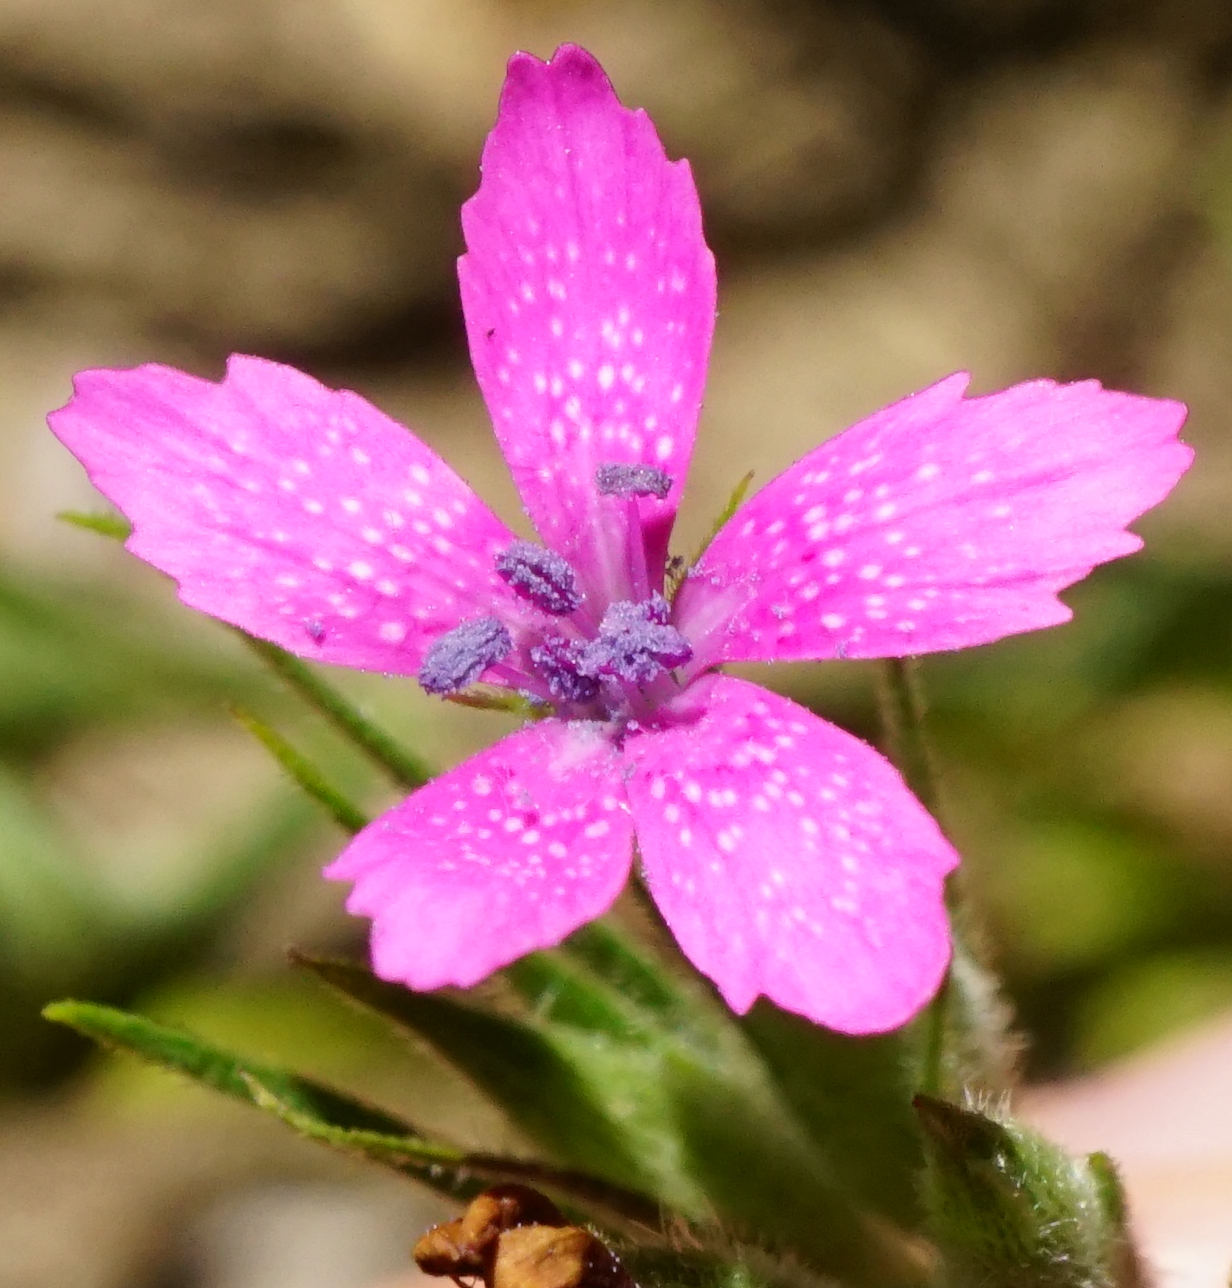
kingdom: Plantae
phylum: Tracheophyta
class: Magnoliopsida
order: Caryophyllales
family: Caryophyllaceae
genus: Dianthus
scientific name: Dianthus armeria
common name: Deptford pink
